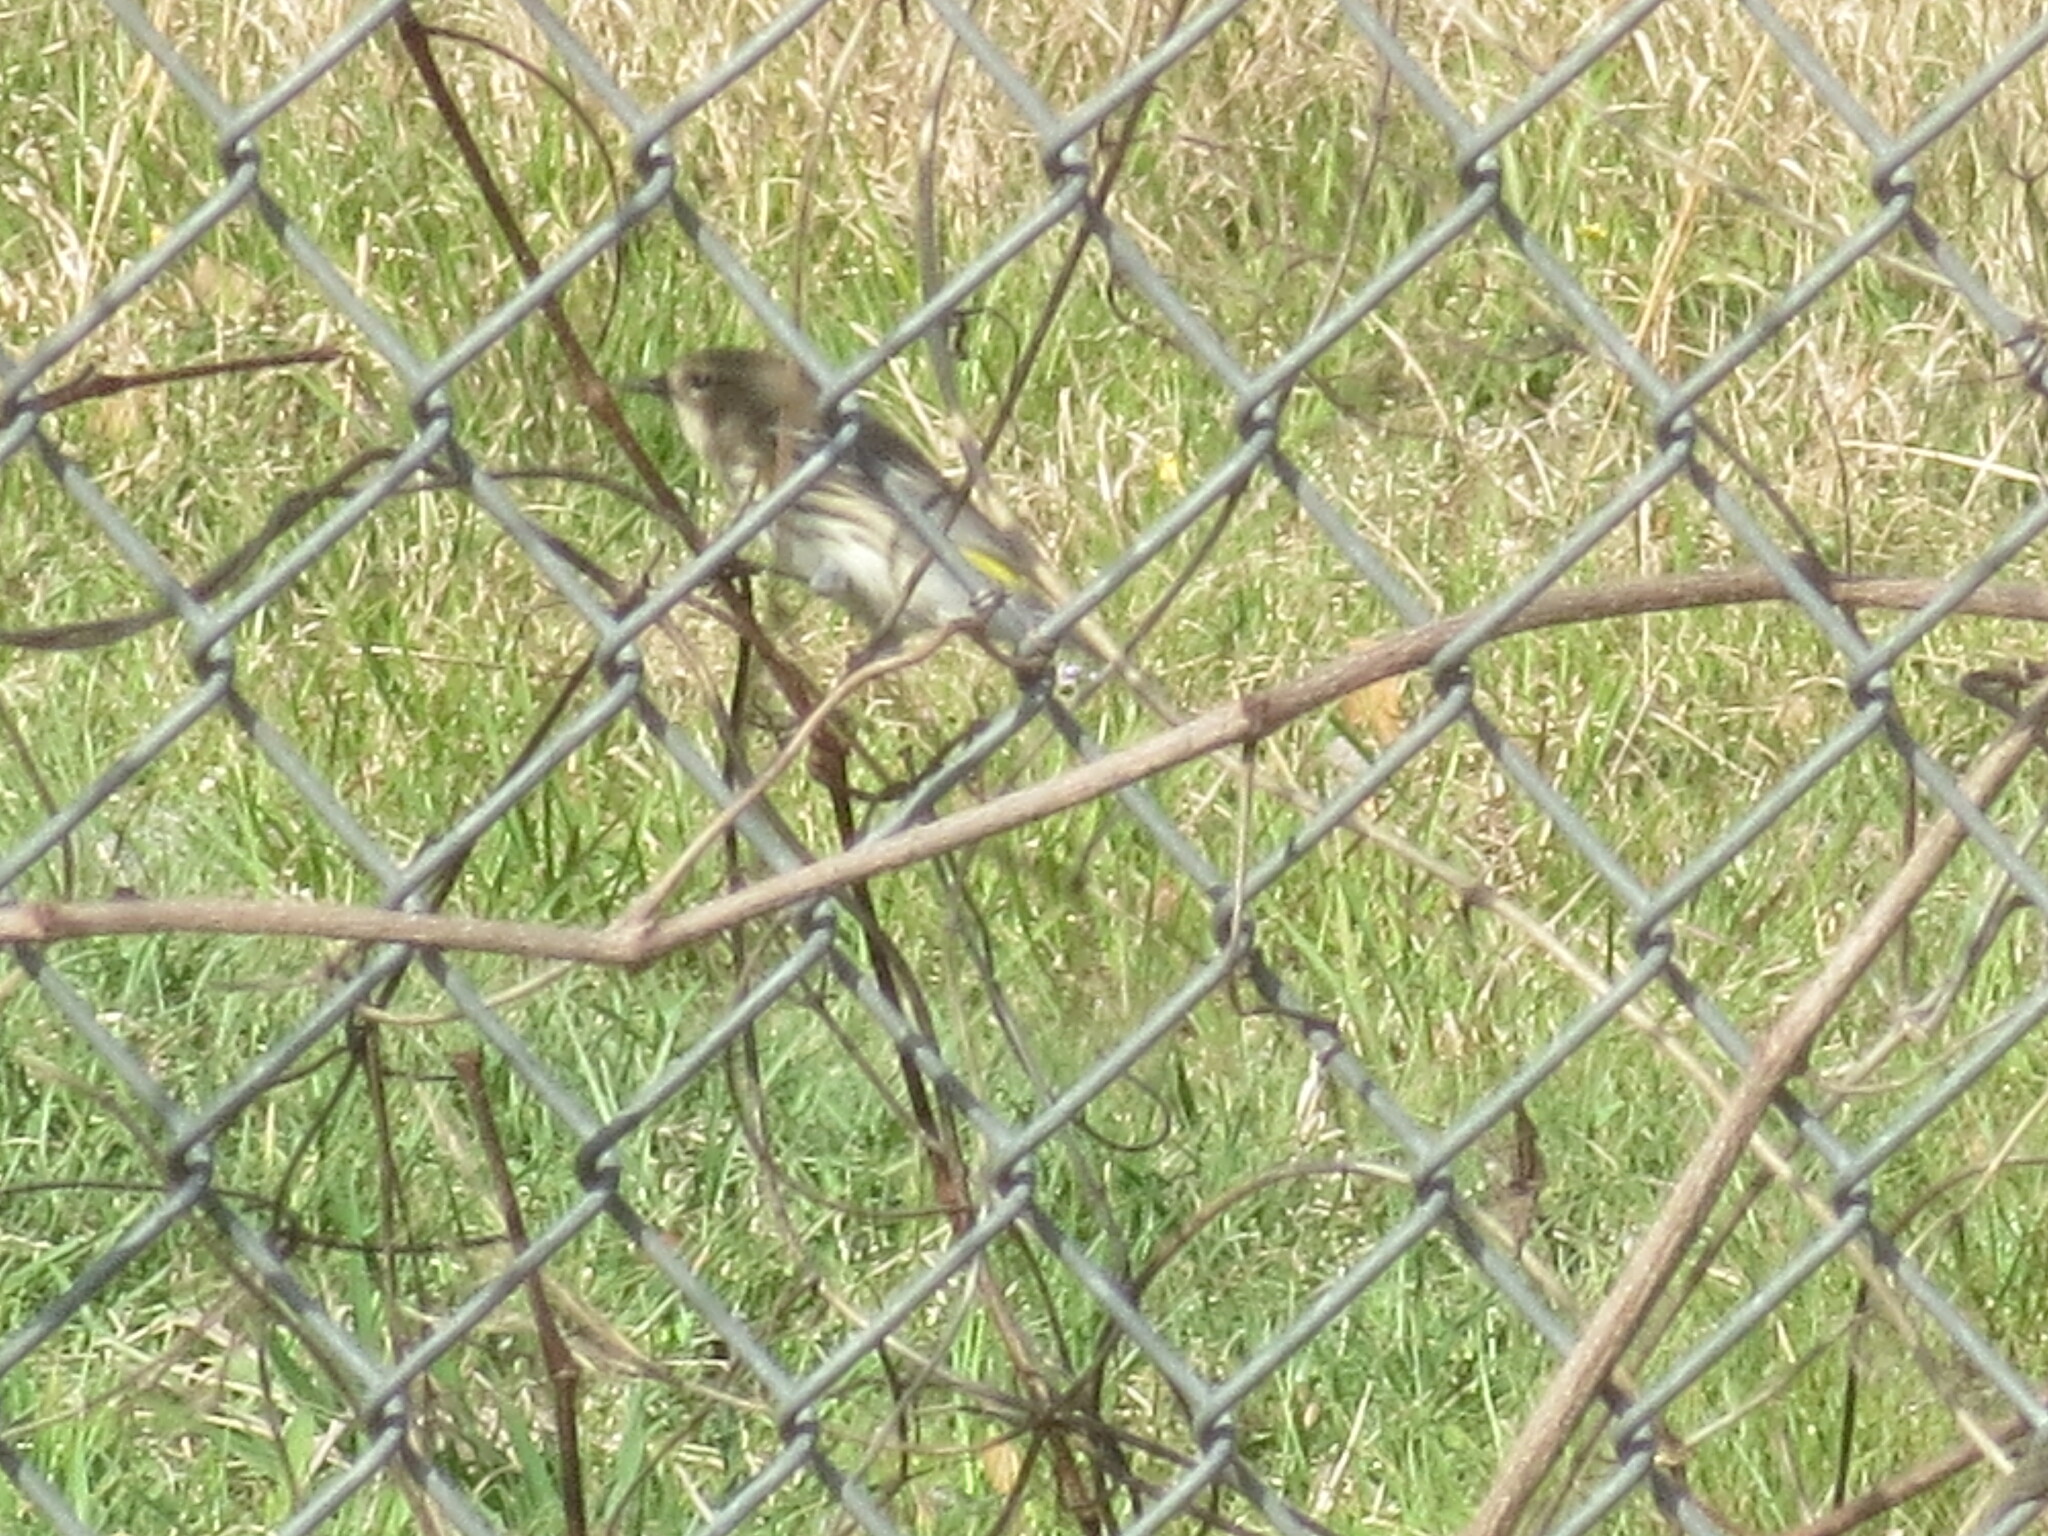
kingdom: Animalia
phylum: Chordata
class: Aves
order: Passeriformes
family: Parulidae
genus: Setophaga
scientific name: Setophaga coronata
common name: Myrtle warbler
